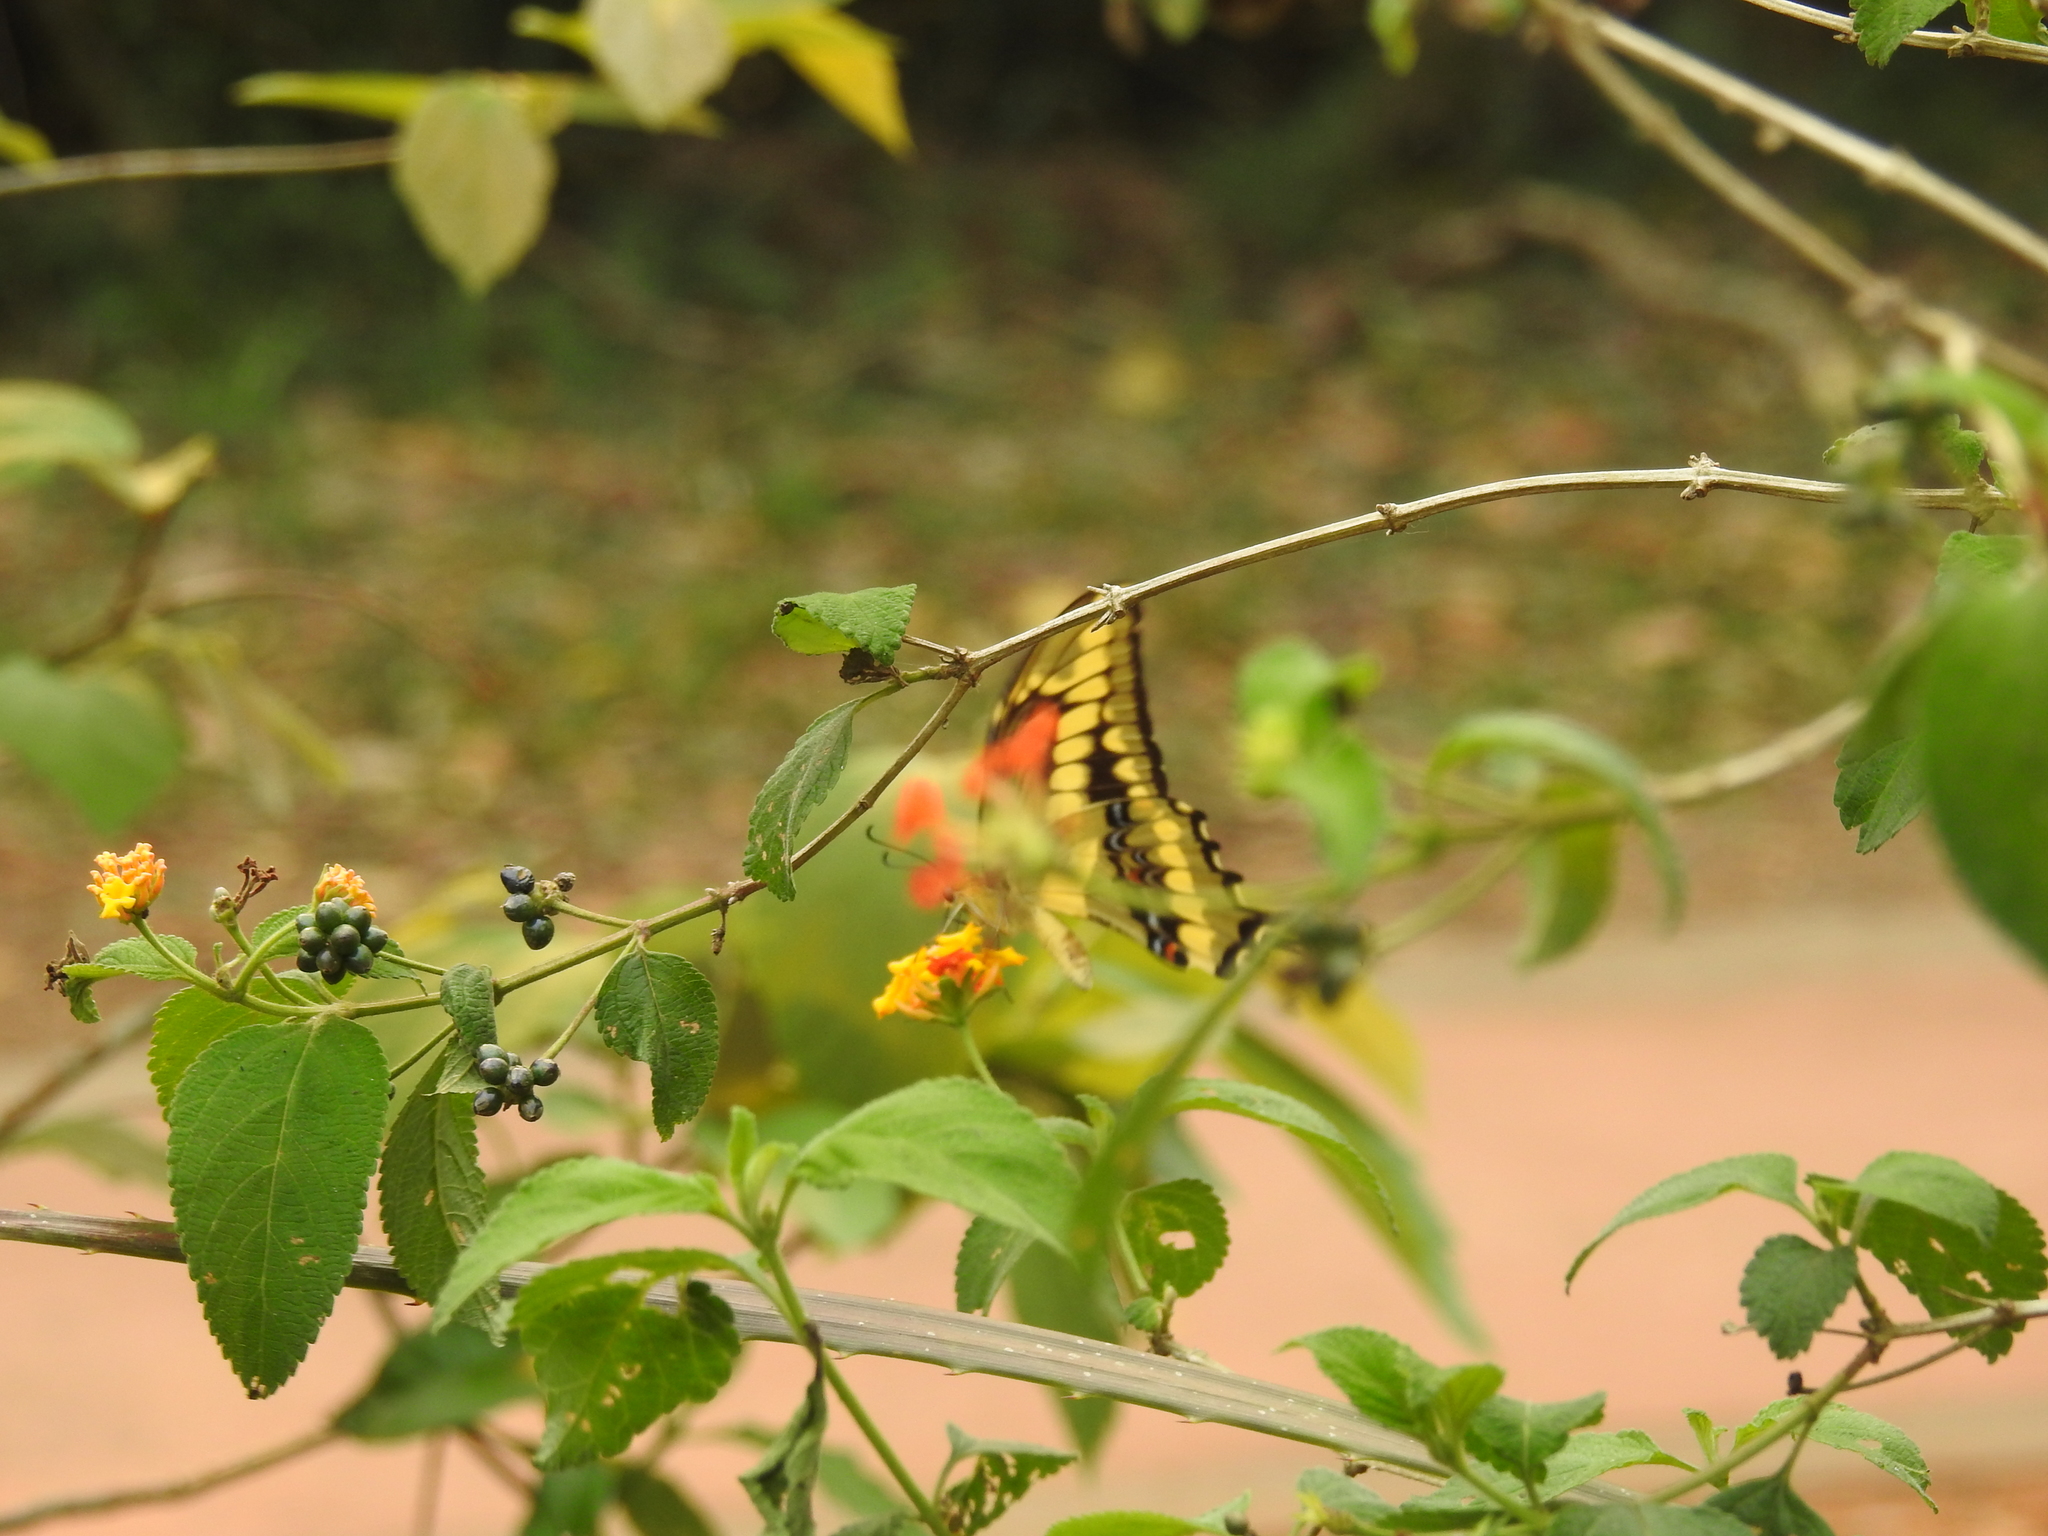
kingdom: Animalia
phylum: Arthropoda
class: Insecta
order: Lepidoptera
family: Papilionidae
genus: Papilio
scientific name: Papilio thoas
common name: King swallowtail
